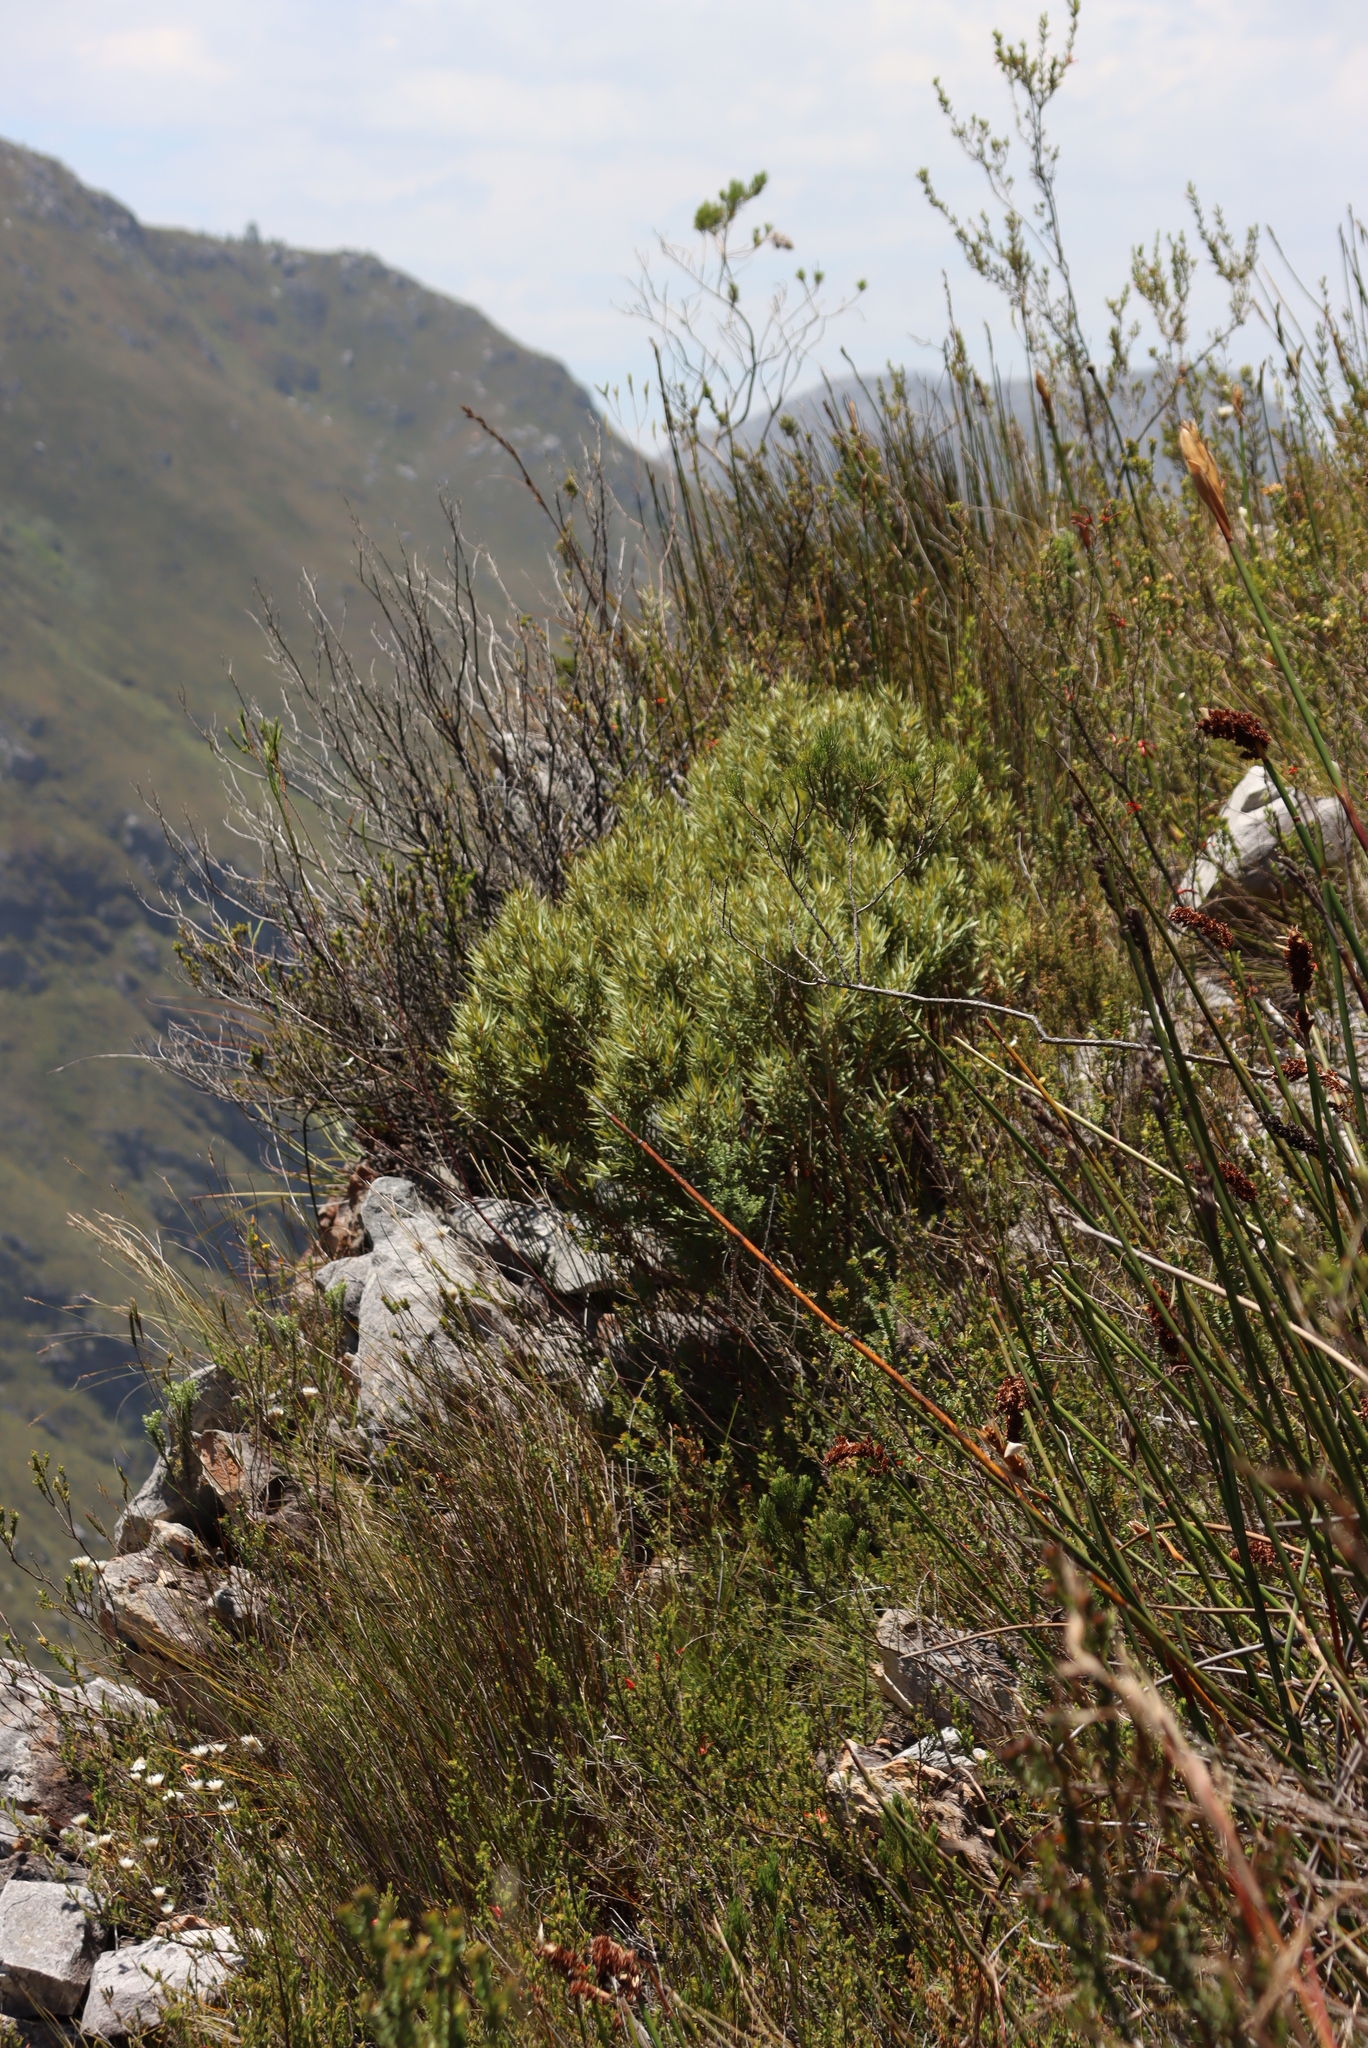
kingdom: Plantae
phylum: Tracheophyta
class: Magnoliopsida
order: Cornales
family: Grubbiaceae
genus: Grubbia
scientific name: Grubbia tomentosa
